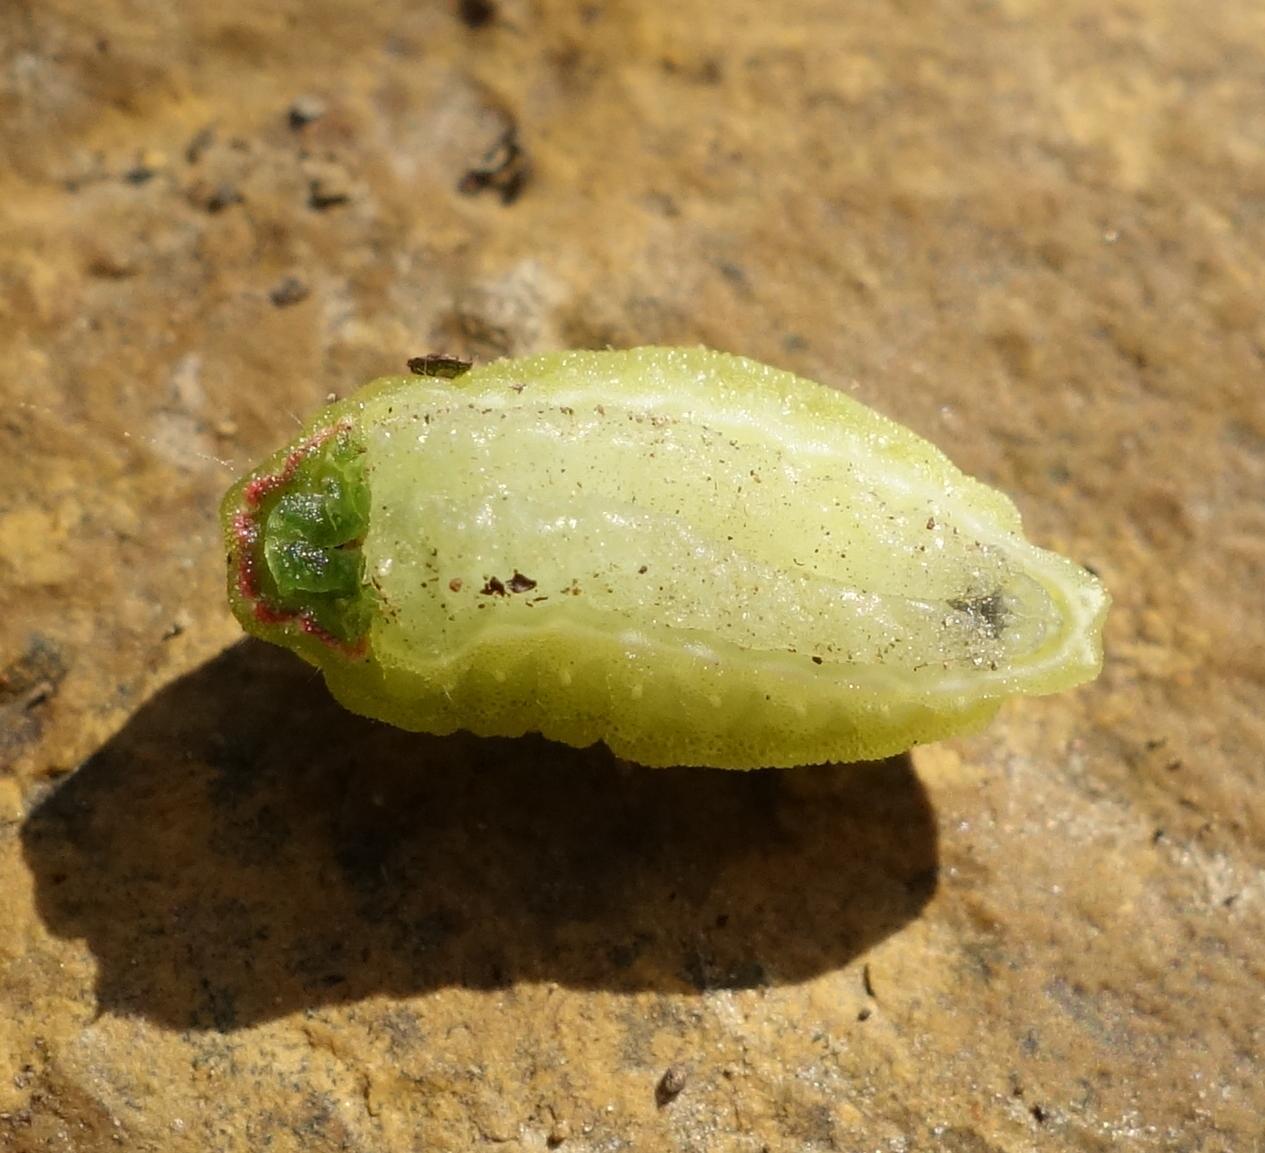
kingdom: Animalia
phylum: Arthropoda
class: Insecta
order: Lepidoptera
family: Limacodidae
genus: Apoda
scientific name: Apoda limacodes
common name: Festoon
